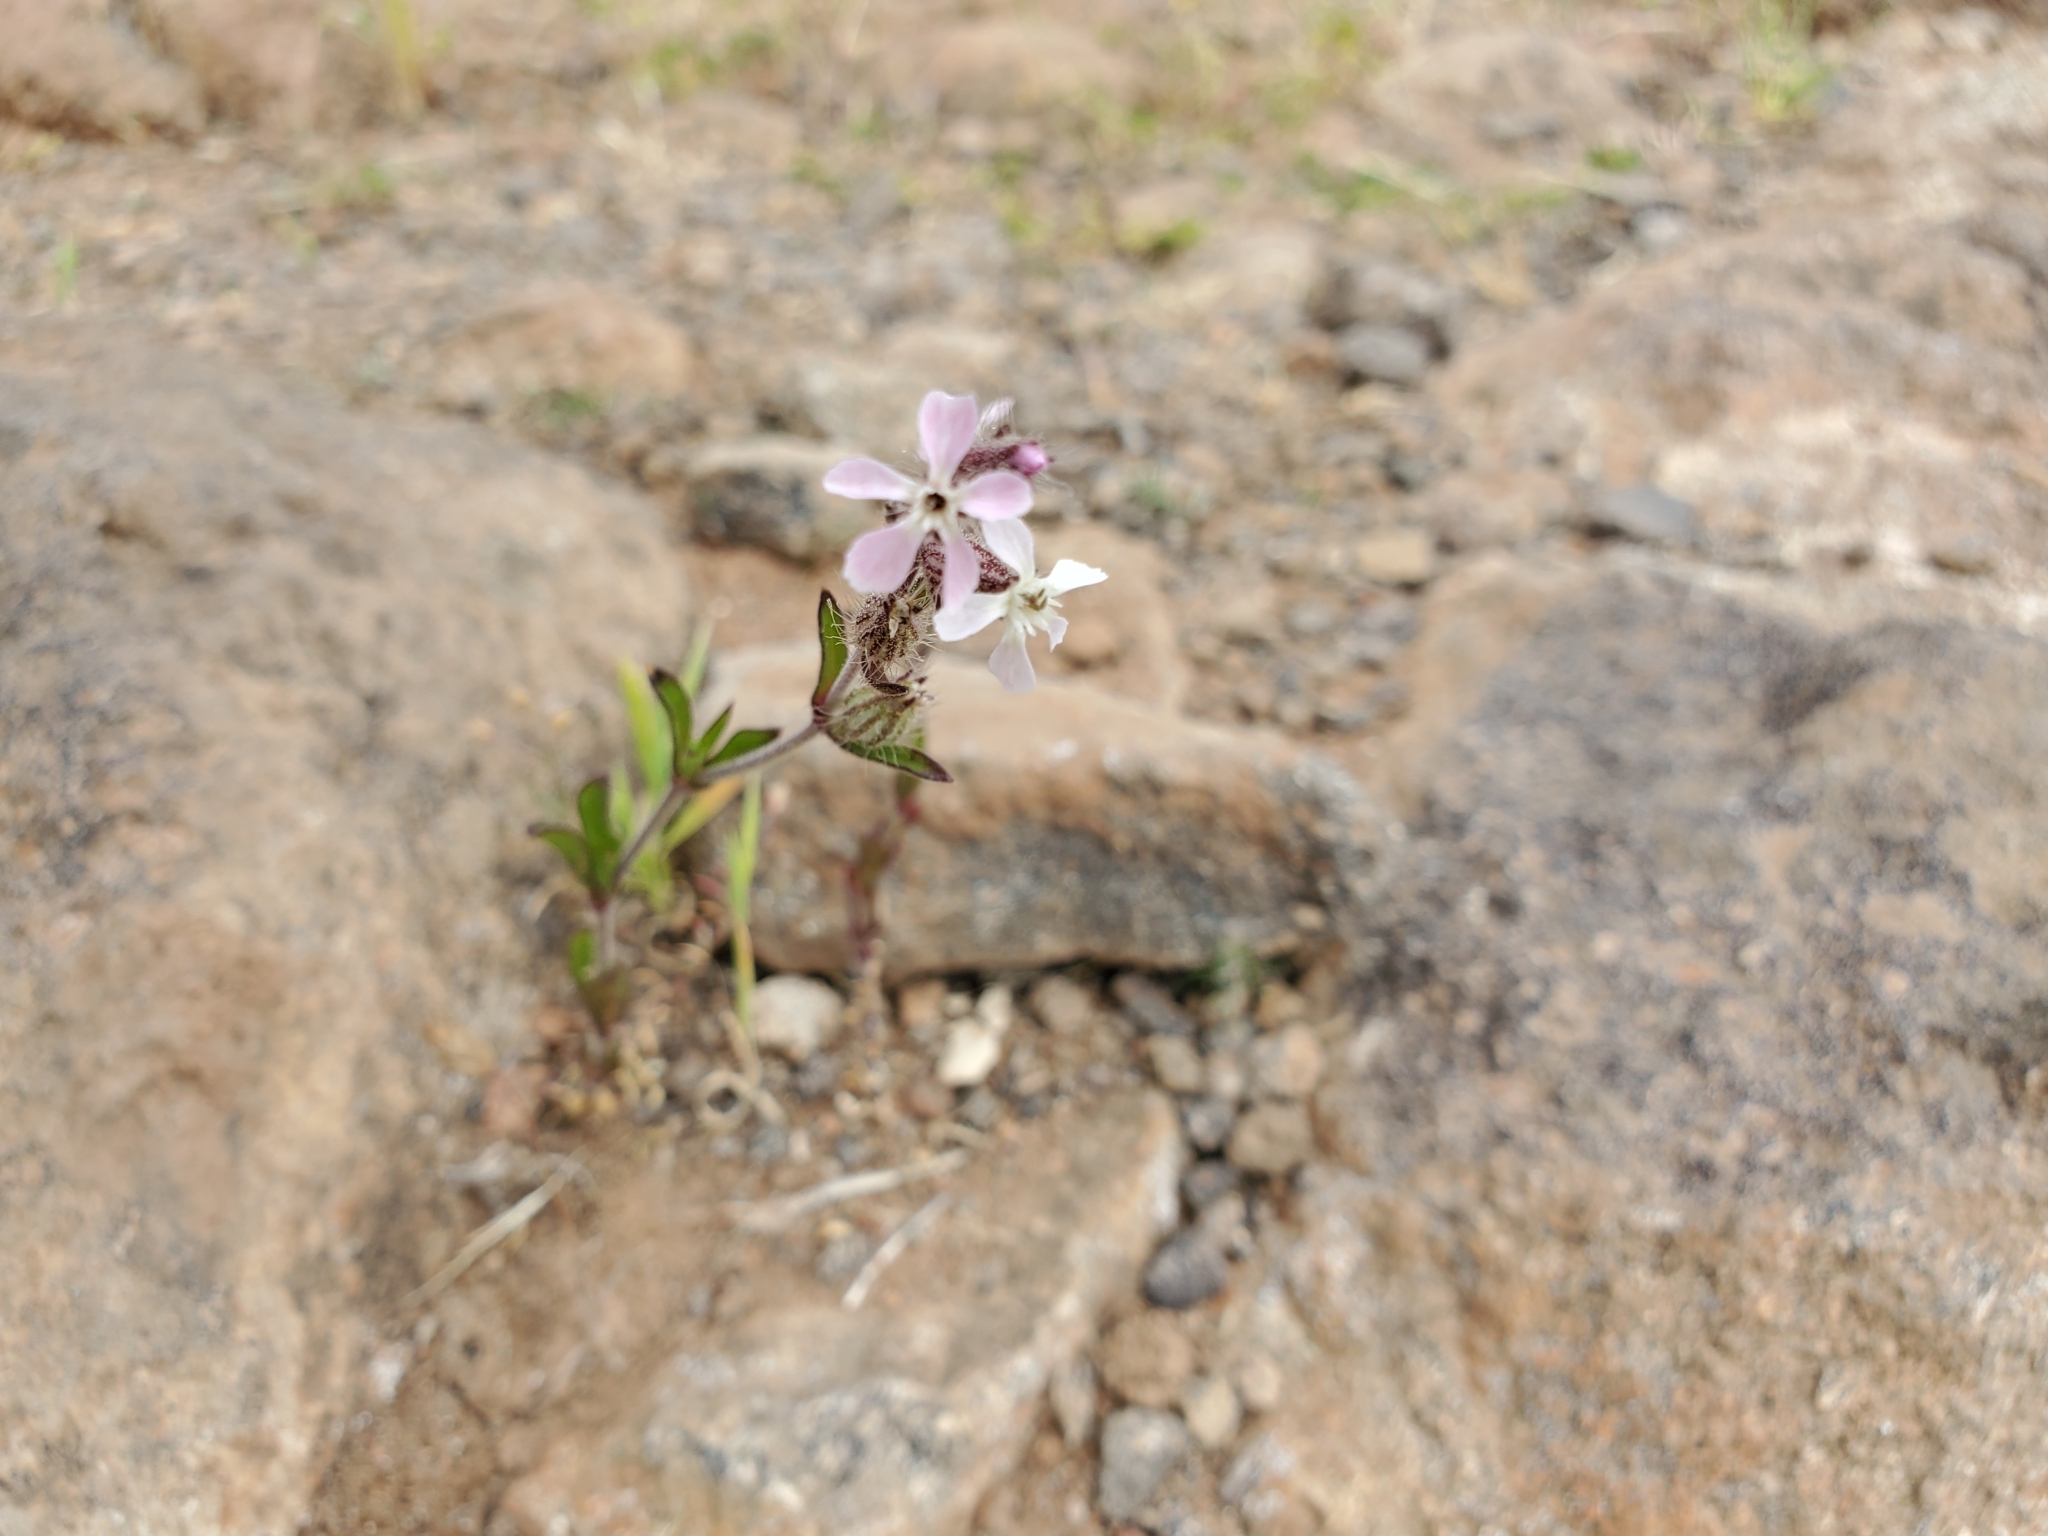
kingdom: Plantae
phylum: Tracheophyta
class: Magnoliopsida
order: Caryophyllales
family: Caryophyllaceae
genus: Silene
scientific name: Silene gallica
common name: Small-flowered catchfly
